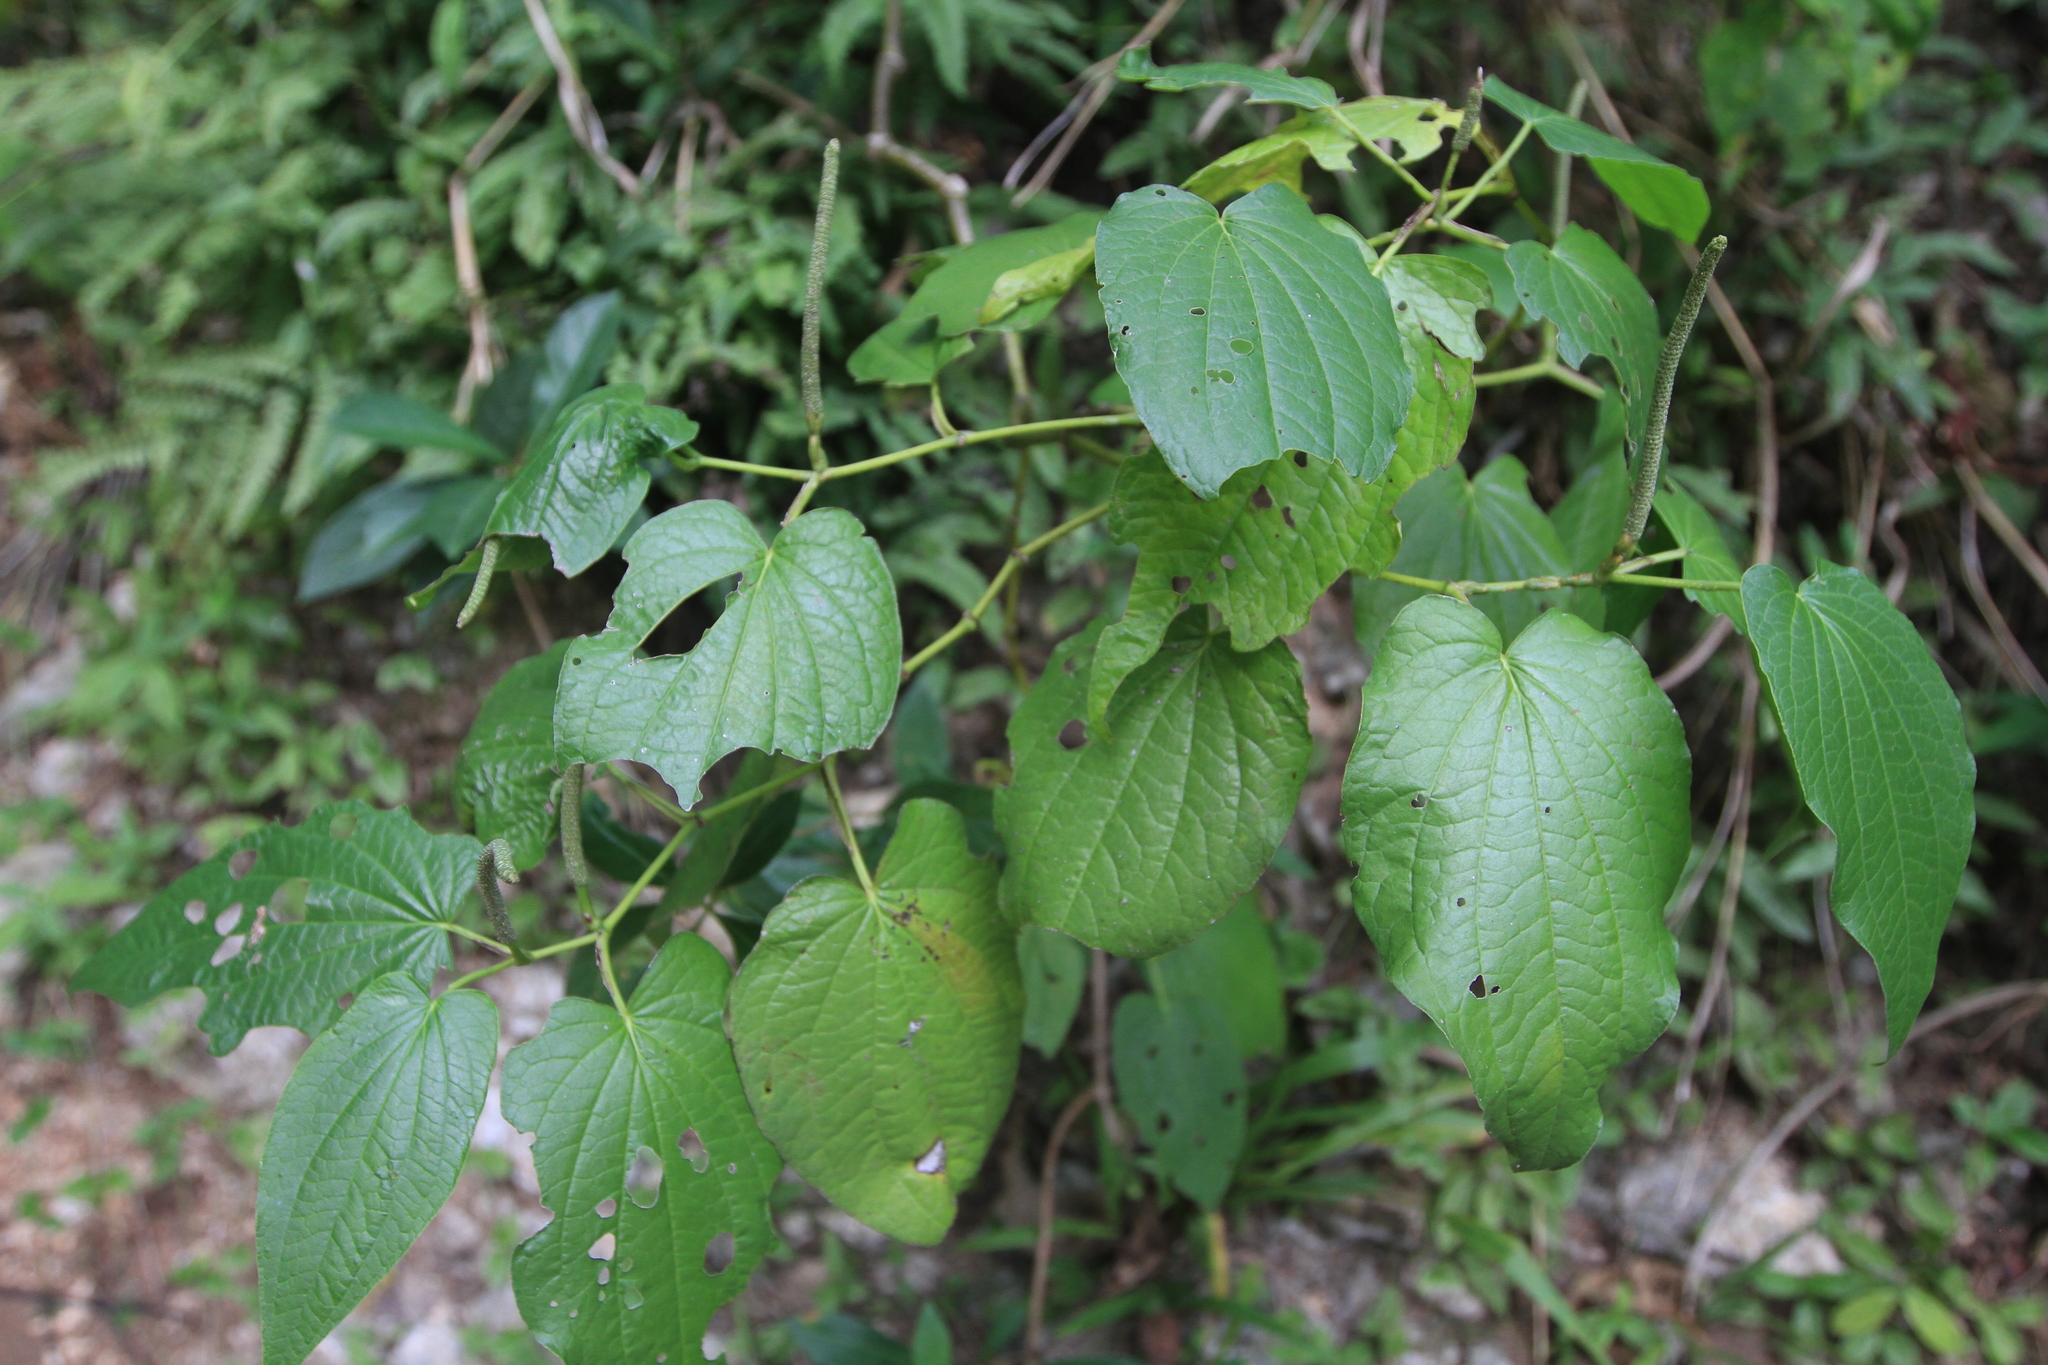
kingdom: Plantae
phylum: Tracheophyta
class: Magnoliopsida
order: Piperales
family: Piperaceae
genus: Piper
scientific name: Piper marginatum
